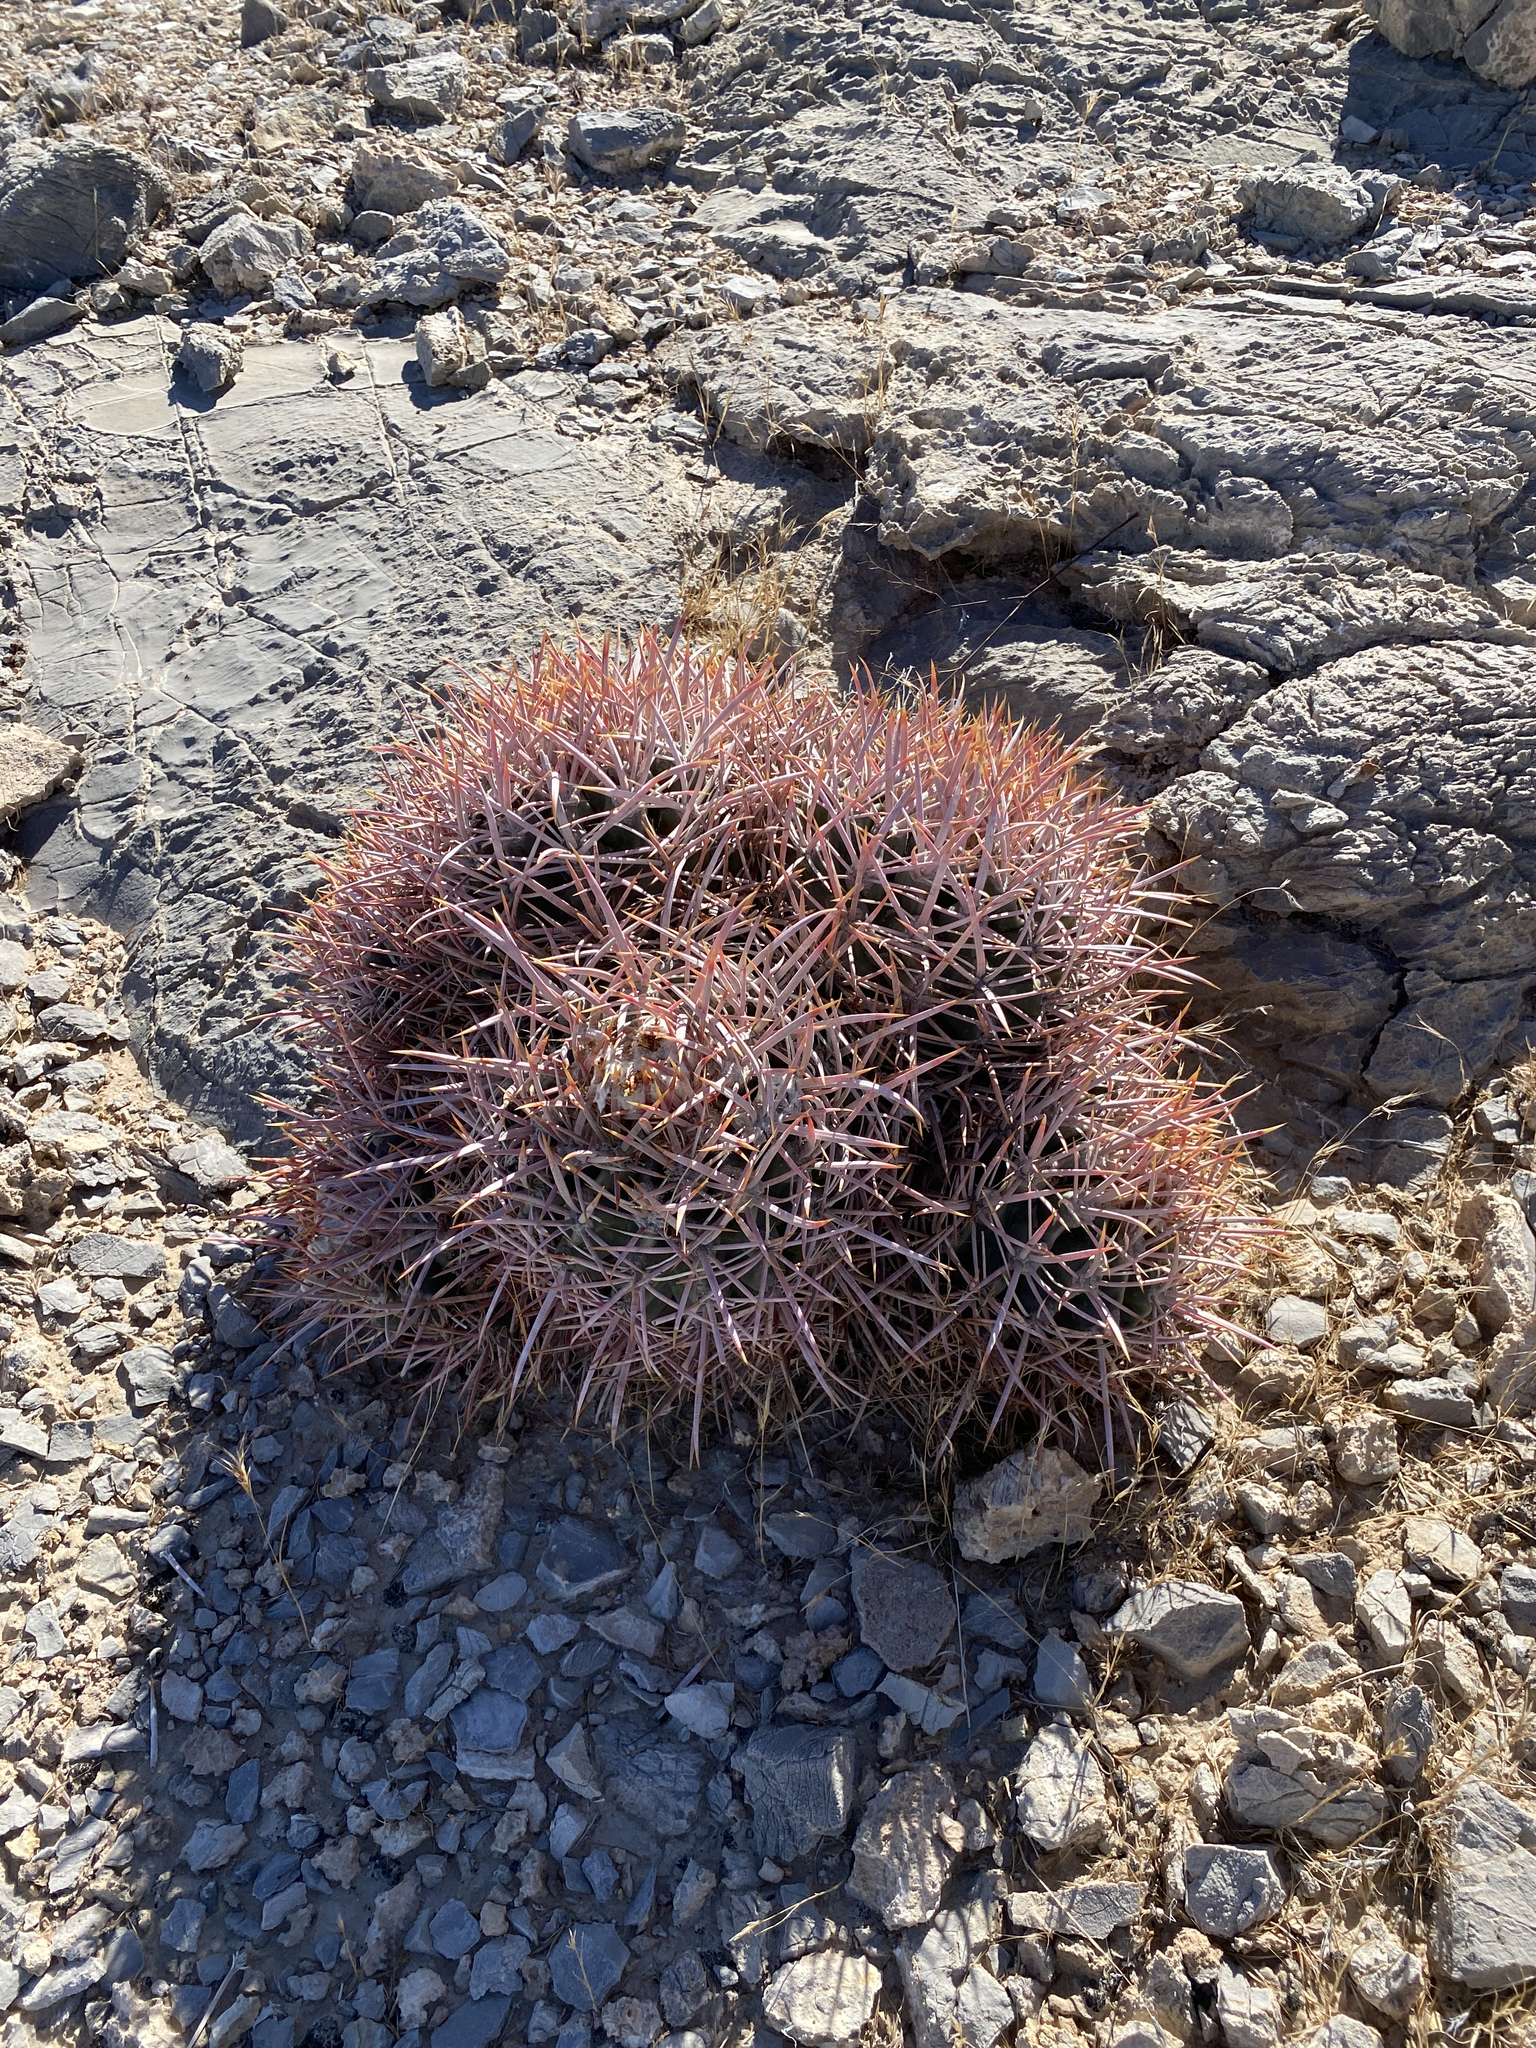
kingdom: Plantae
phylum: Tracheophyta
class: Magnoliopsida
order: Caryophyllales
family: Cactaceae
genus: Echinocactus
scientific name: Echinocactus polycephalus
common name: Cottontop cactus
